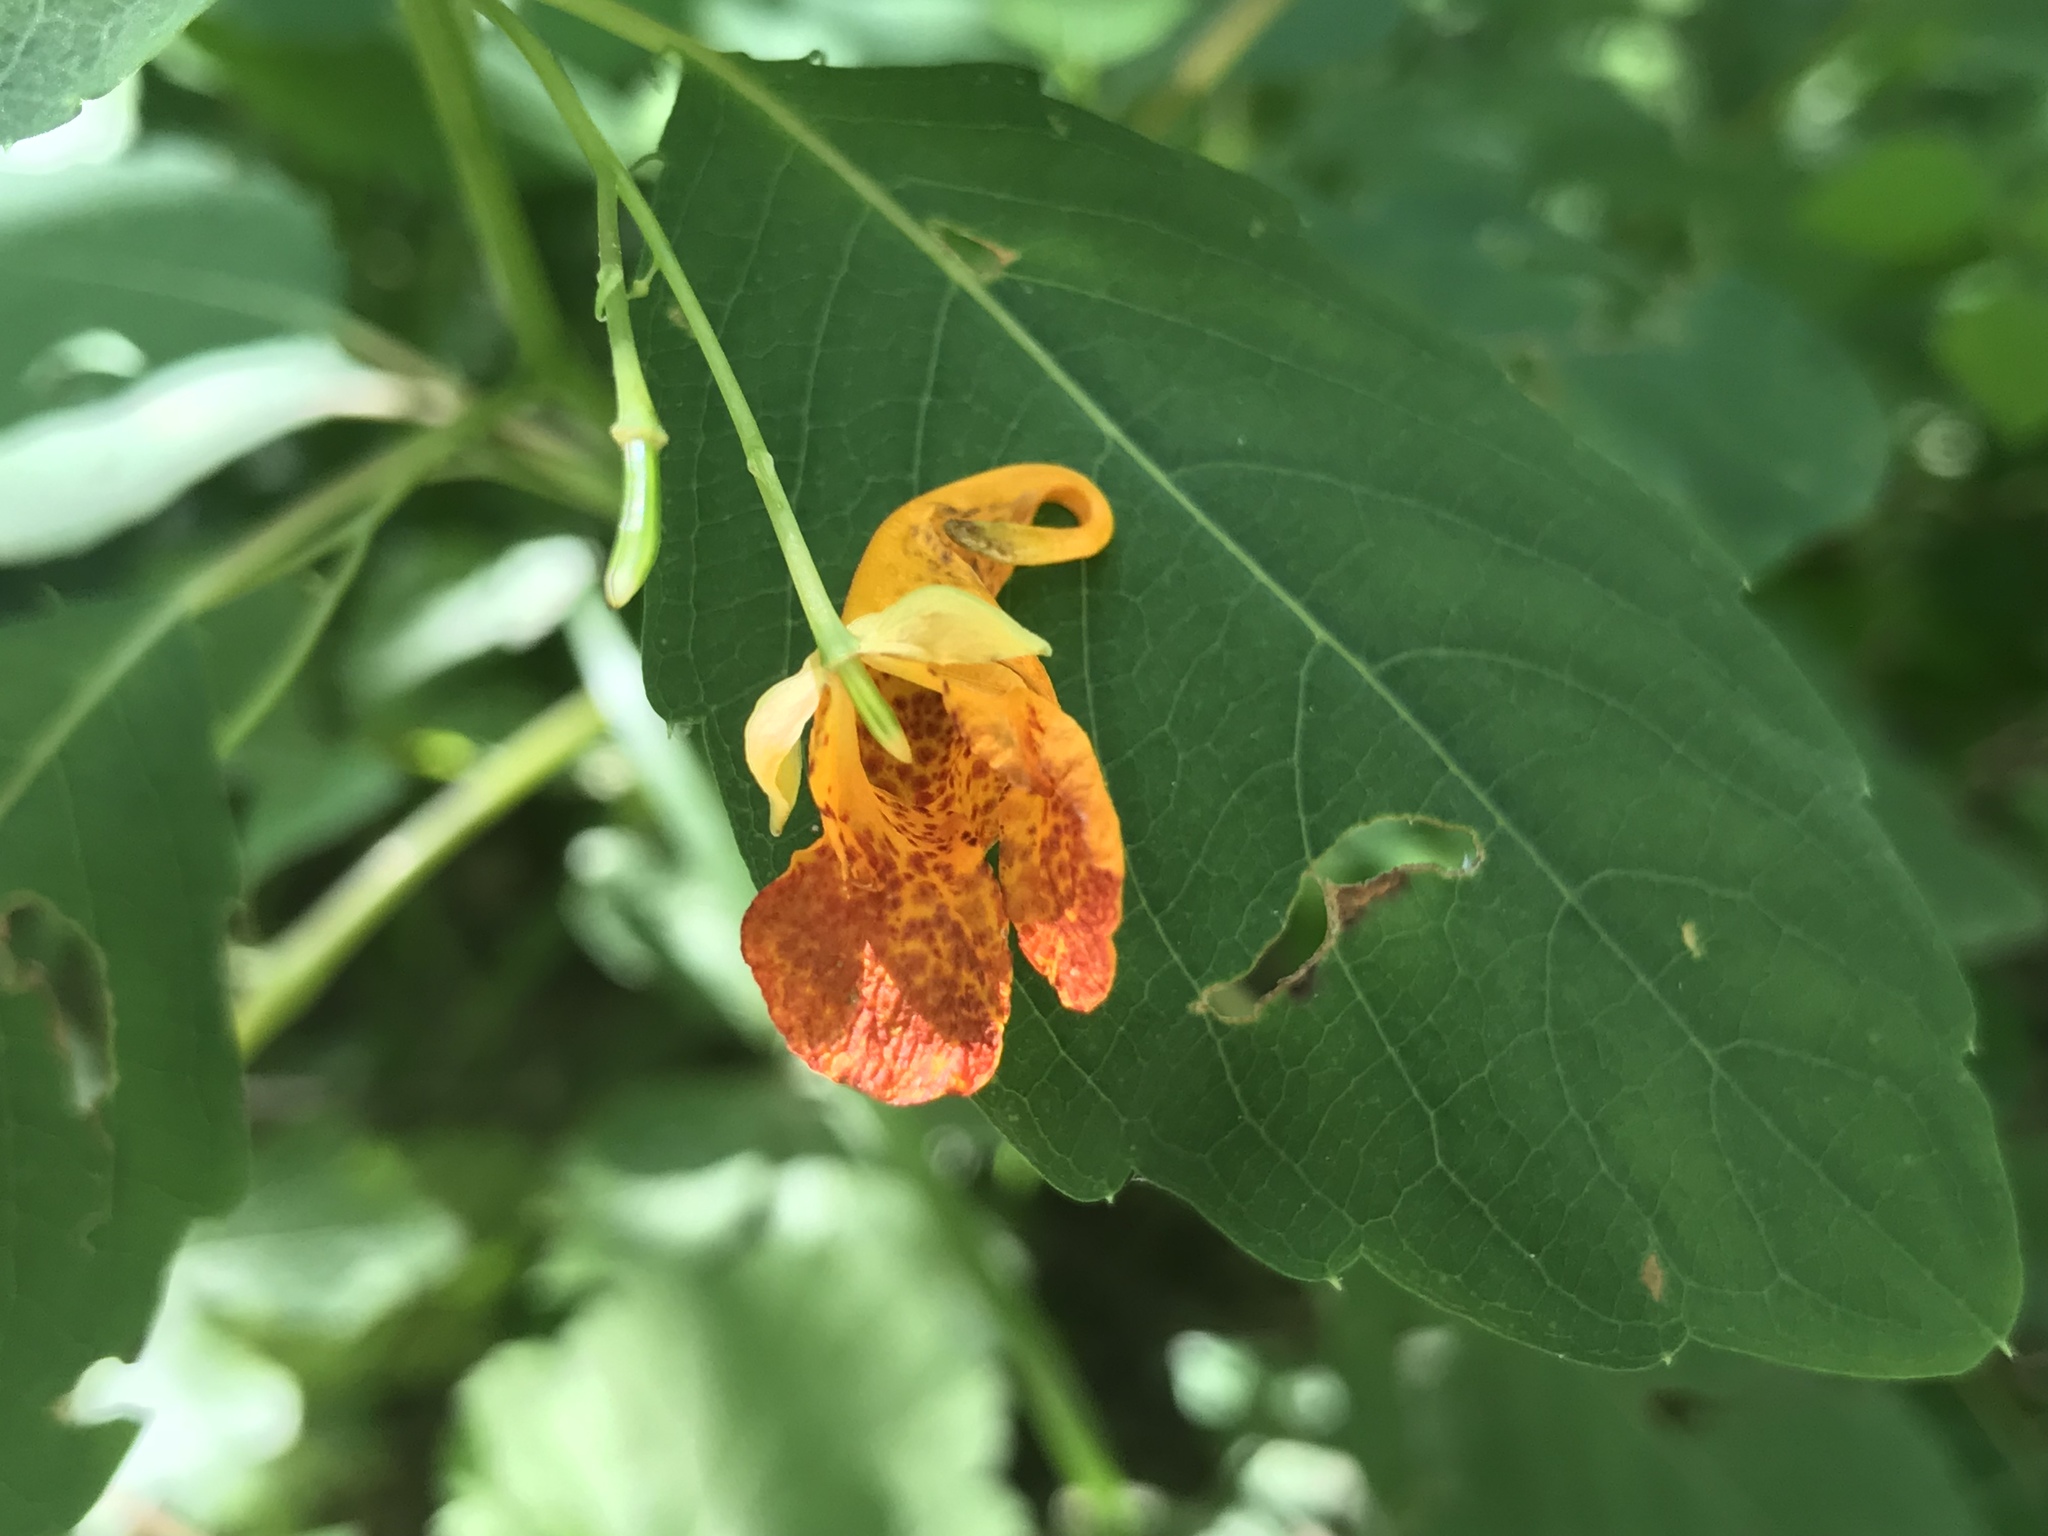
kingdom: Plantae
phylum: Tracheophyta
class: Magnoliopsida
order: Ericales
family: Balsaminaceae
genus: Impatiens
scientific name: Impatiens capensis
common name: Orange balsam
